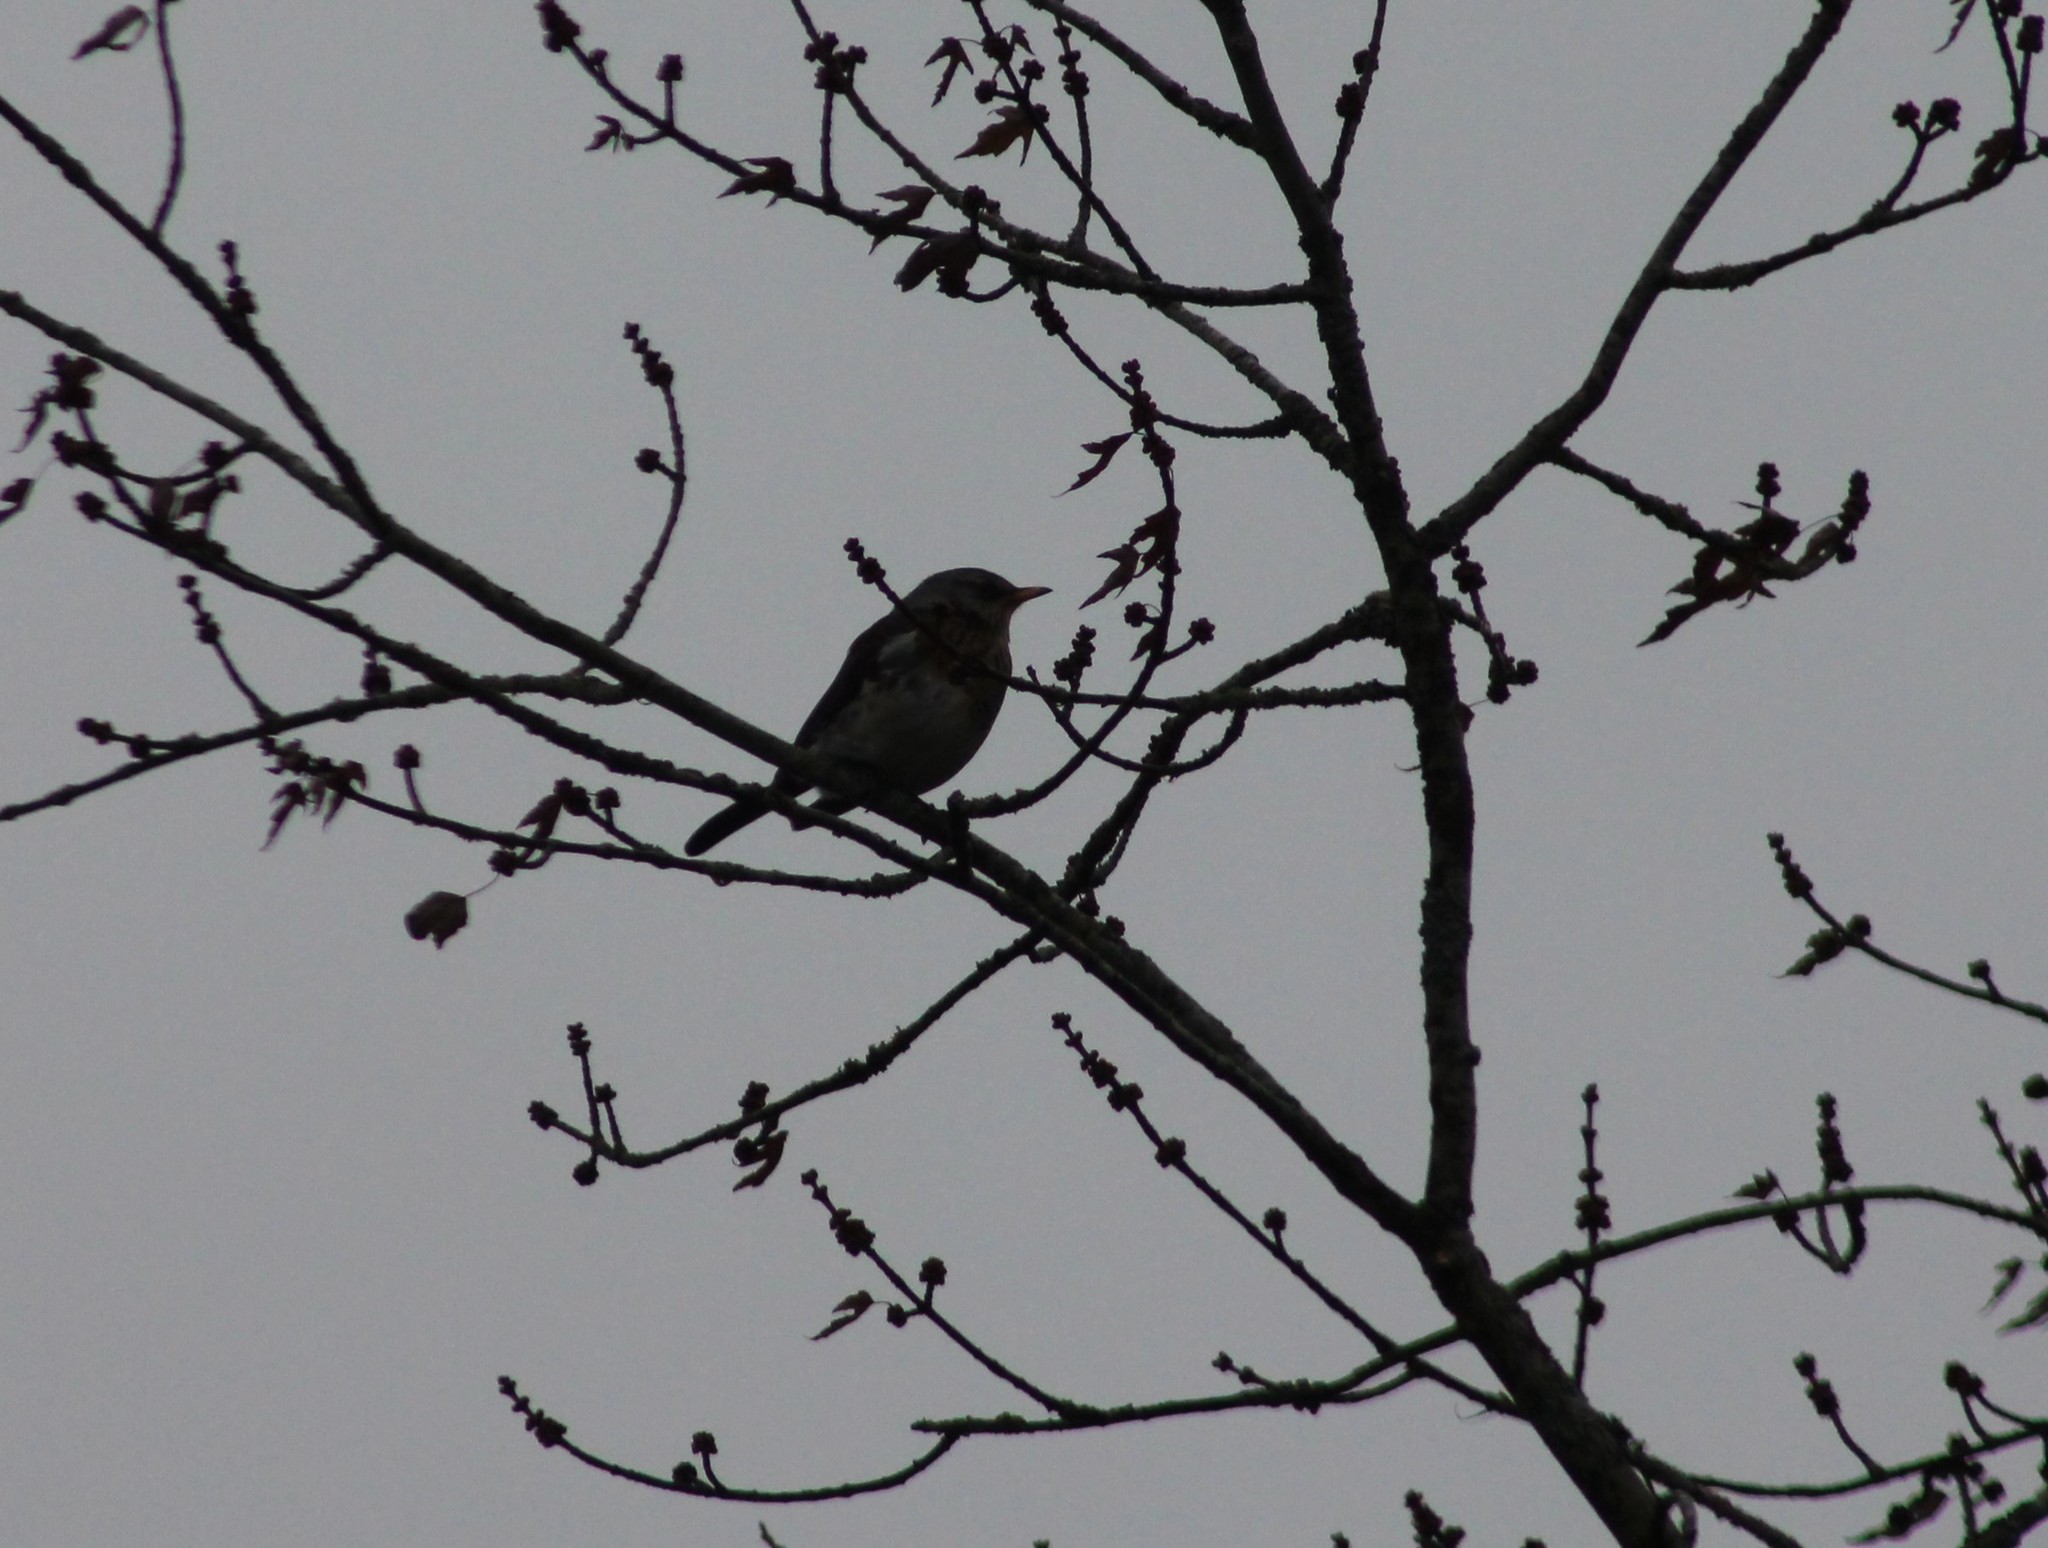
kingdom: Animalia
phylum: Chordata
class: Aves
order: Passeriformes
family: Turdidae
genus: Turdus
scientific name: Turdus pilaris
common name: Fieldfare
